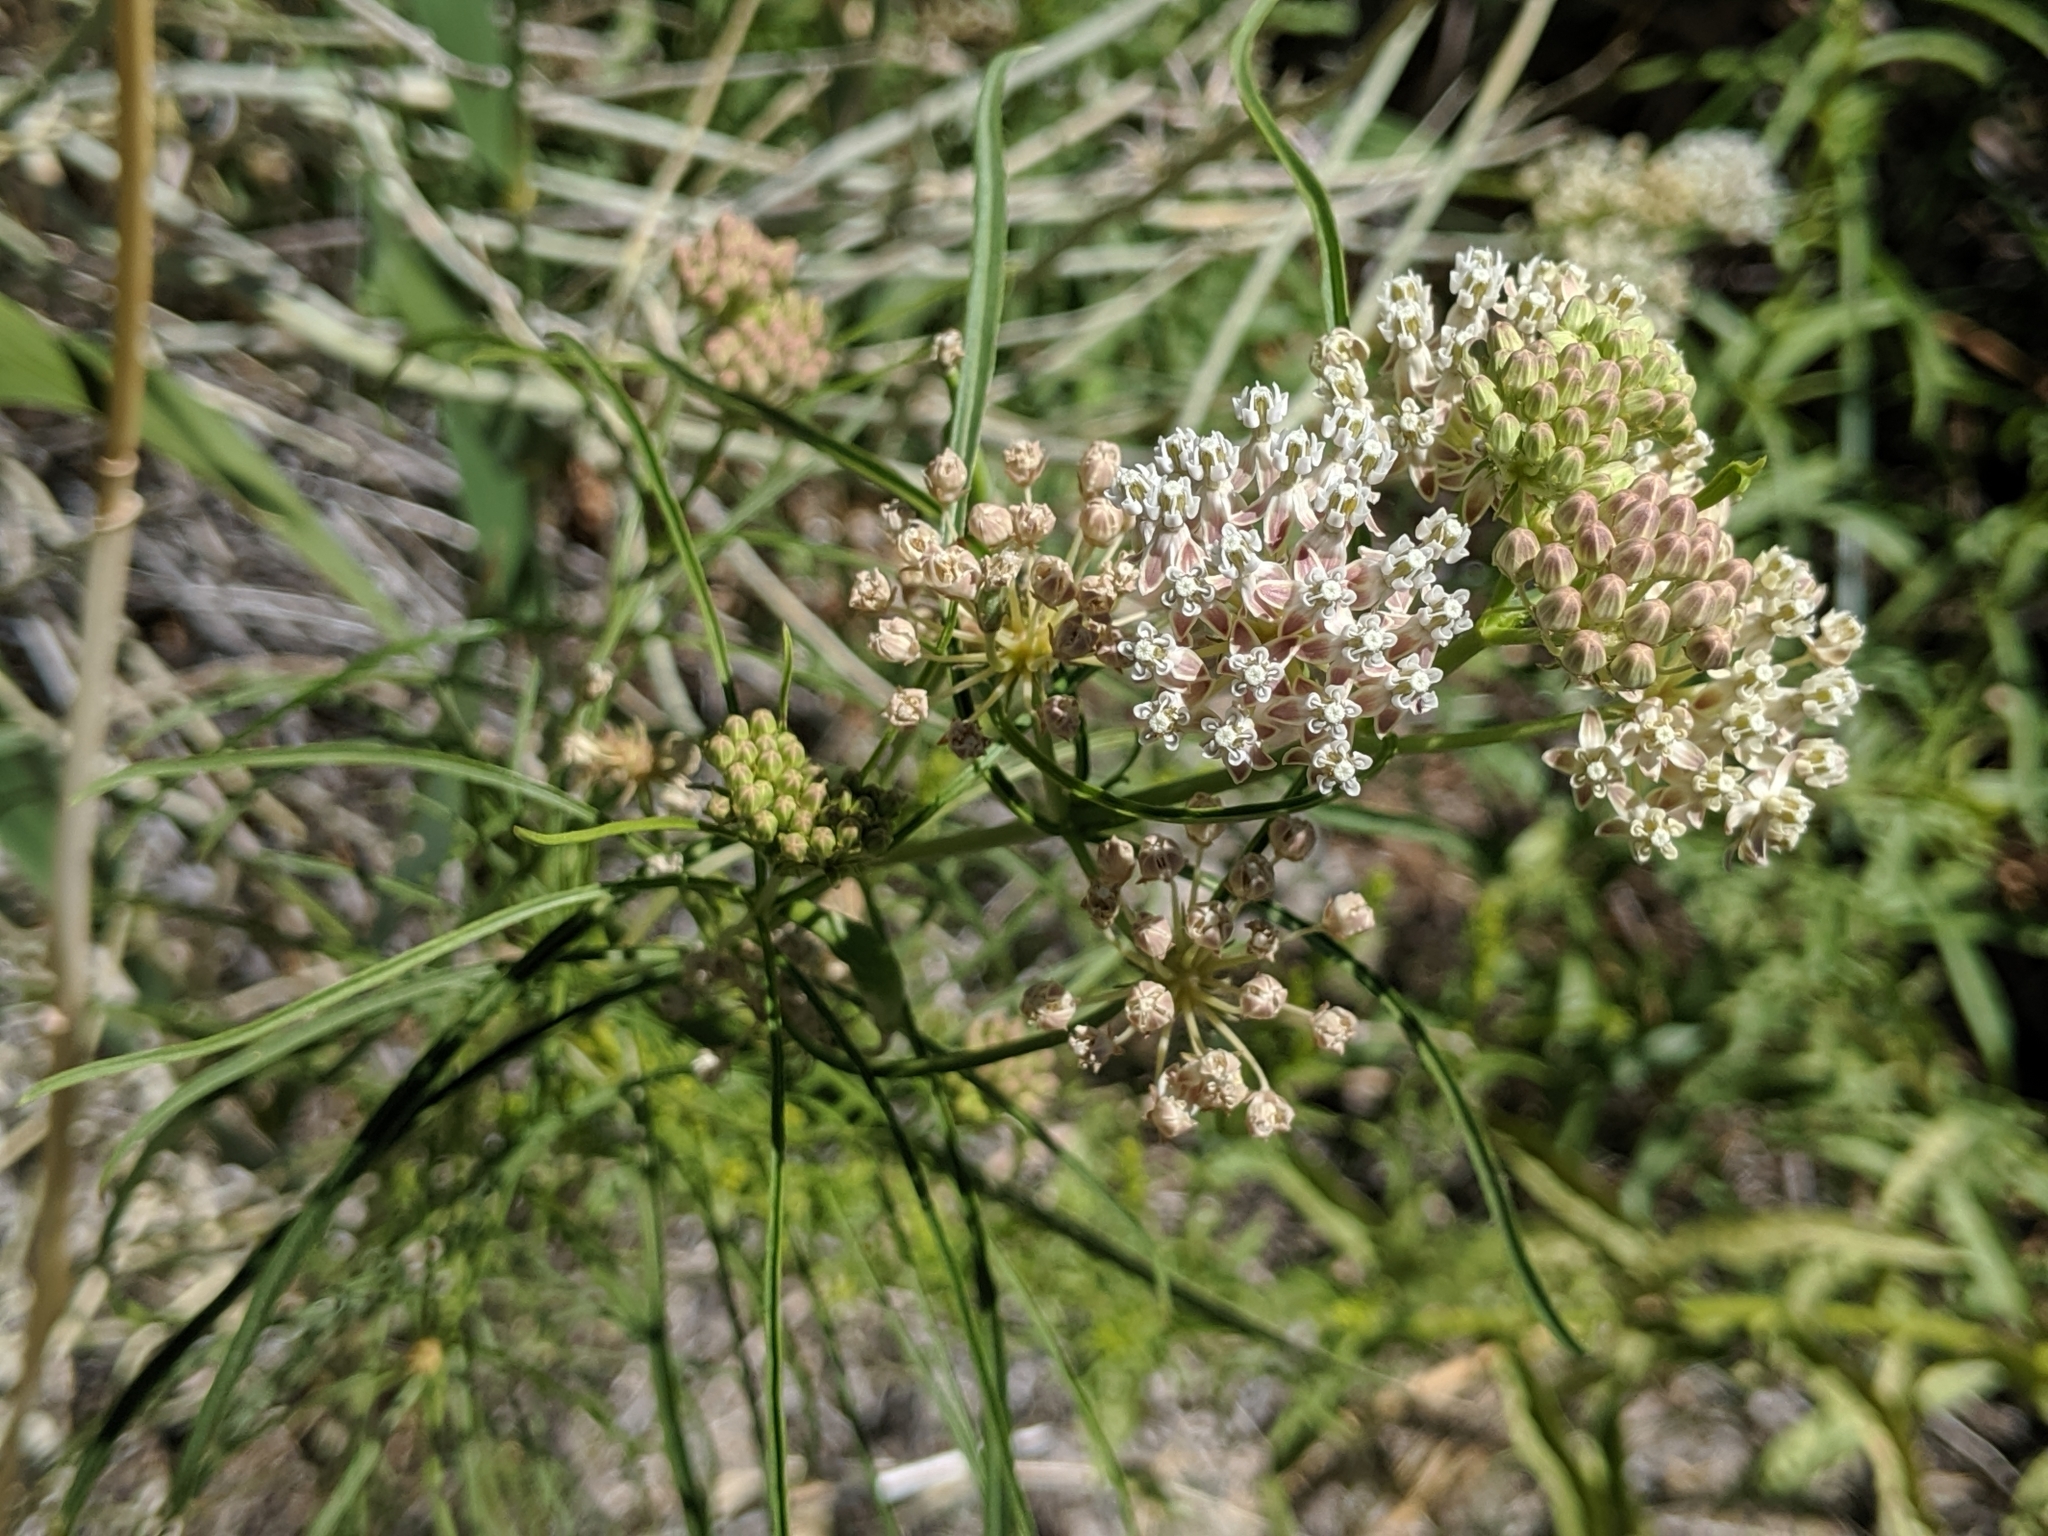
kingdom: Plantae
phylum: Tracheophyta
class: Magnoliopsida
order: Gentianales
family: Apocynaceae
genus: Asclepias
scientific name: Asclepias fascicularis
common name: Mexican milkweed
